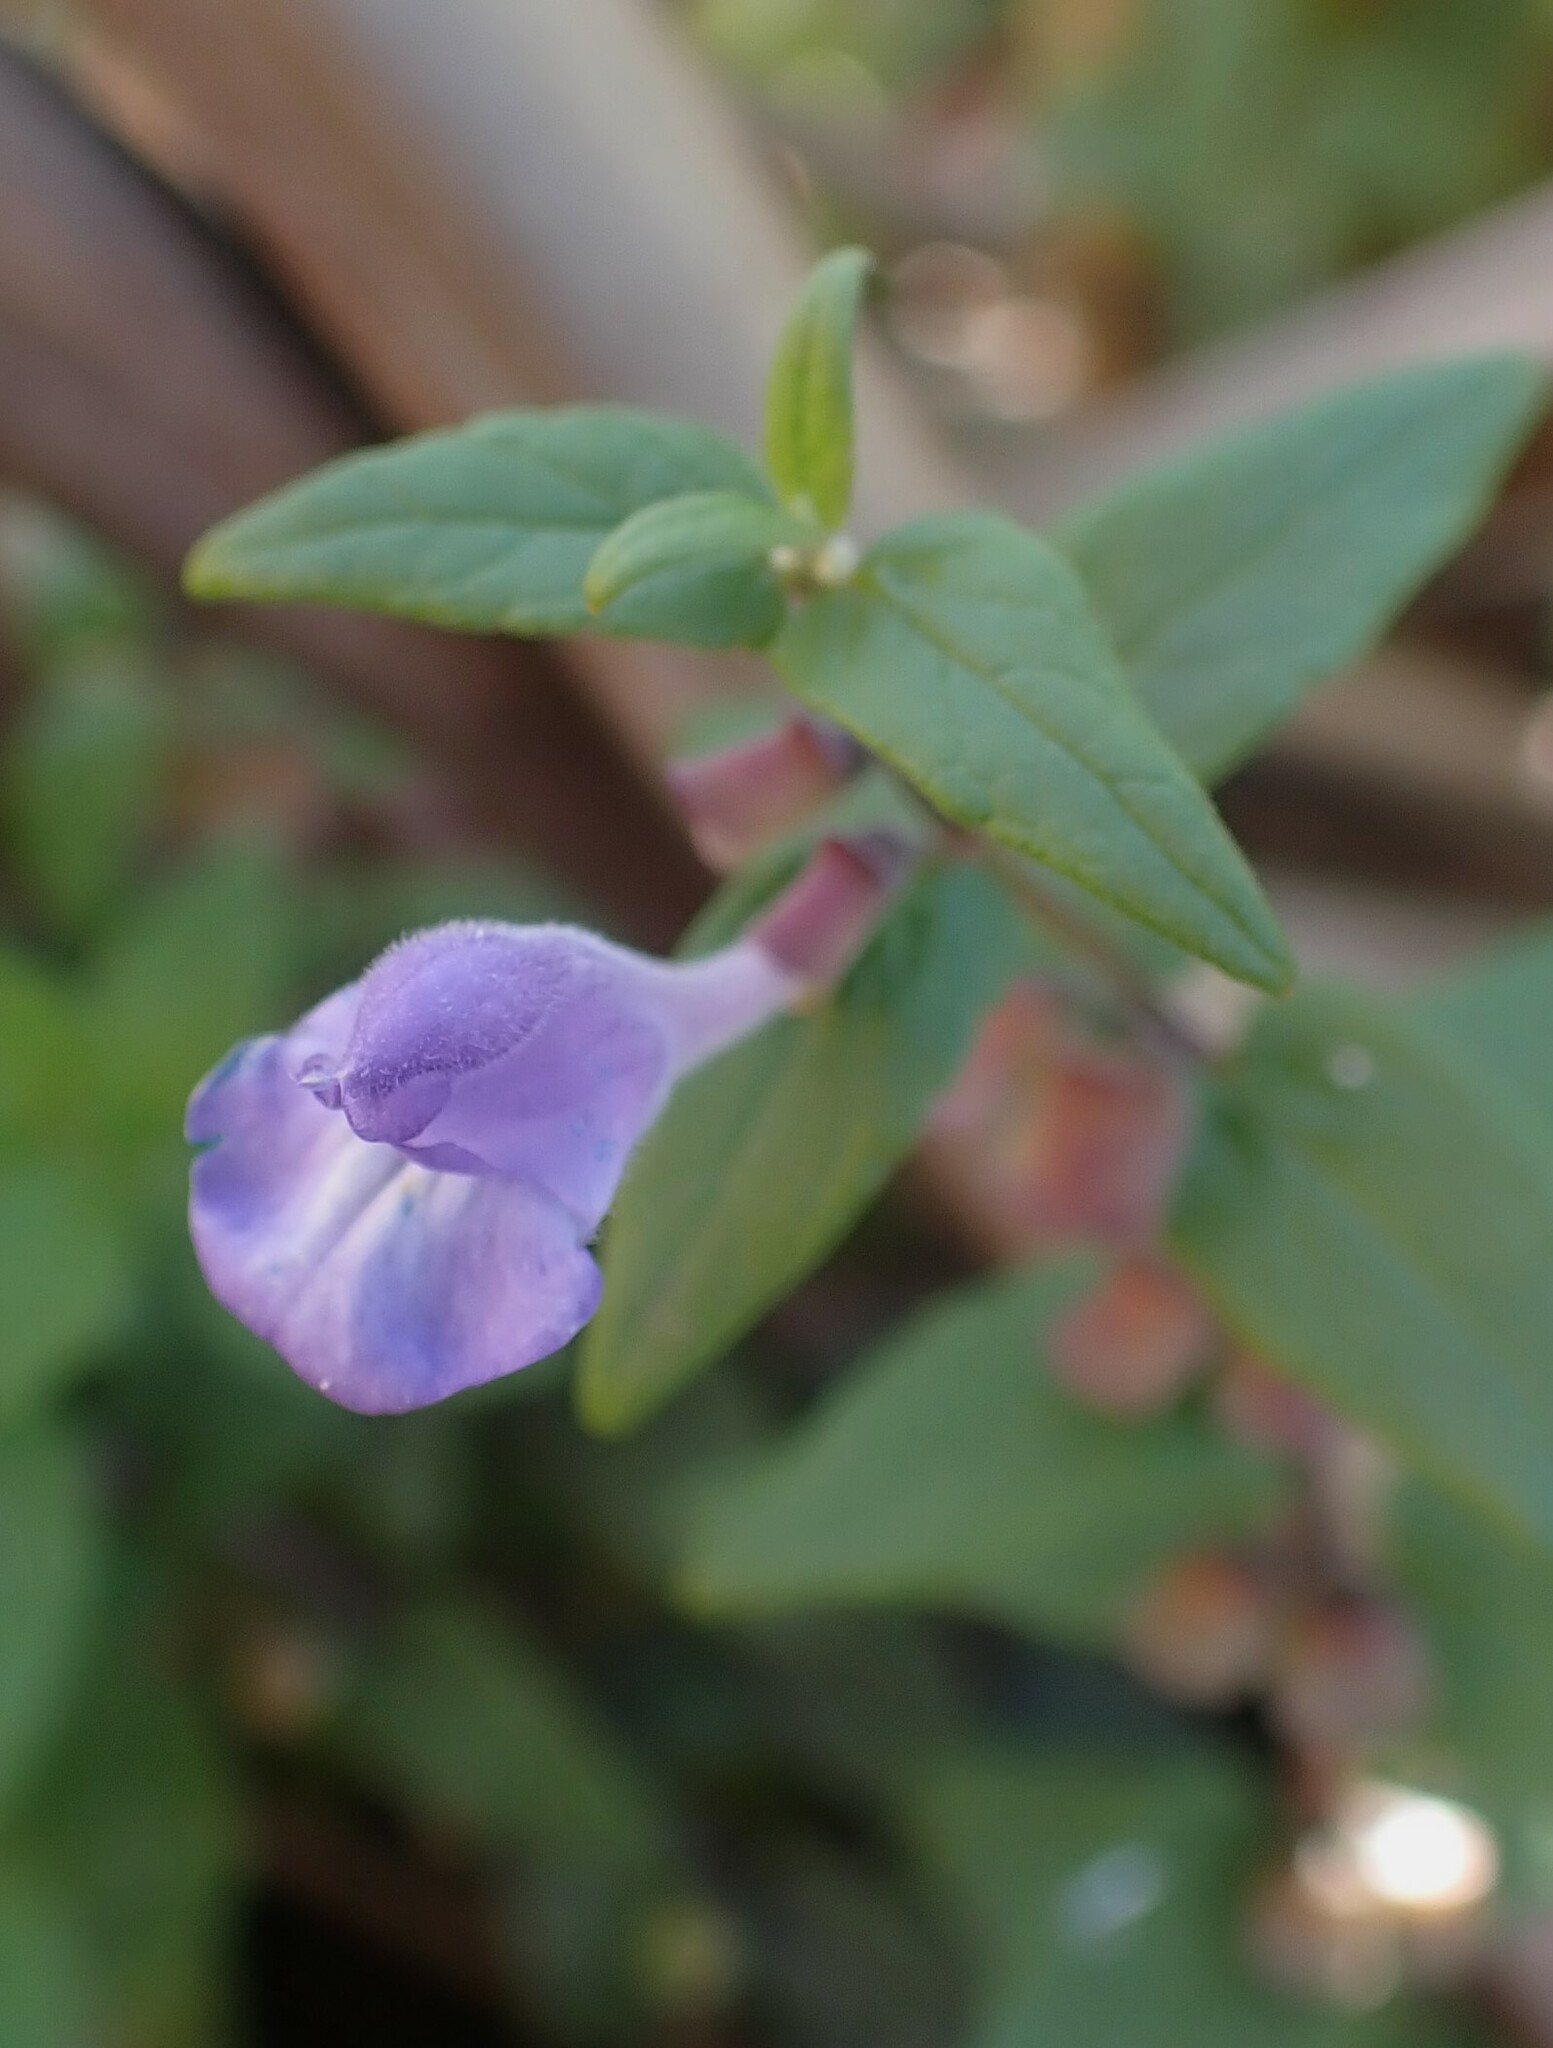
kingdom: Plantae
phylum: Tracheophyta
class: Magnoliopsida
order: Lamiales
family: Lamiaceae
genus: Scutellaria
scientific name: Scutellaria galericulata
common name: Skullcap
